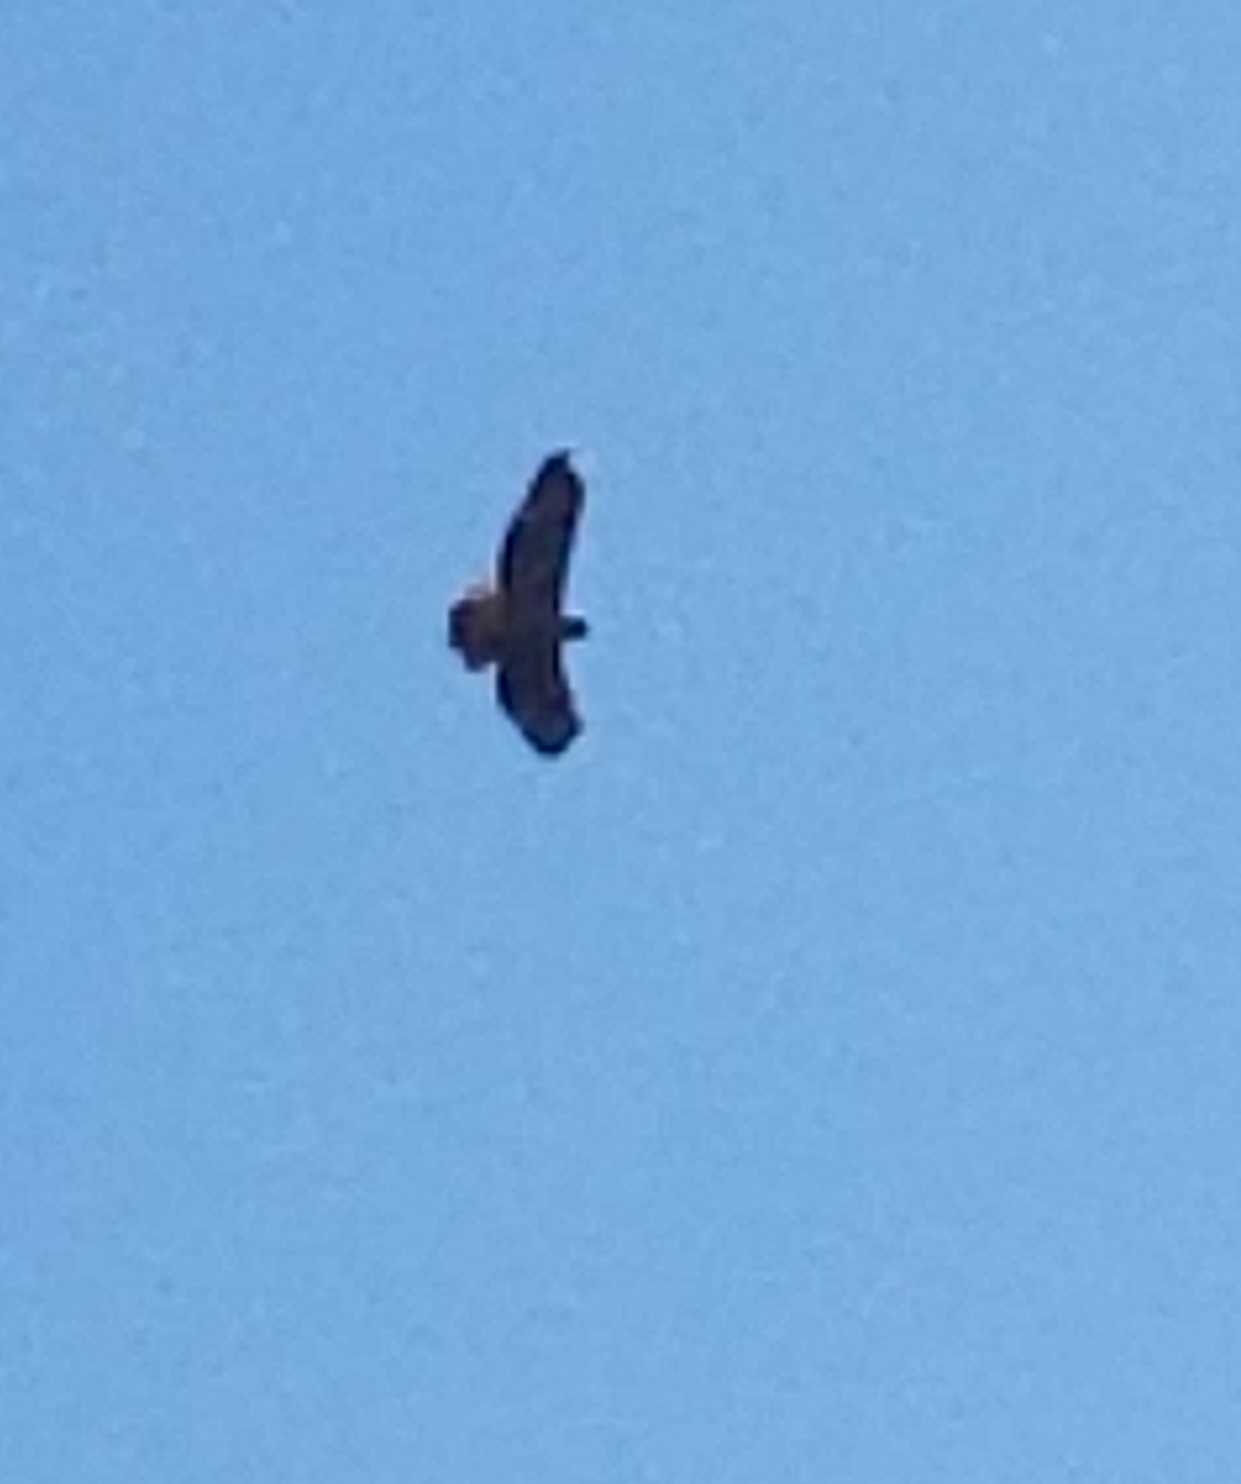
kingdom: Animalia
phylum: Chordata
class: Aves
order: Accipitriformes
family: Accipitridae
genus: Buteo
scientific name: Buteo jamaicensis
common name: Red-tailed hawk
